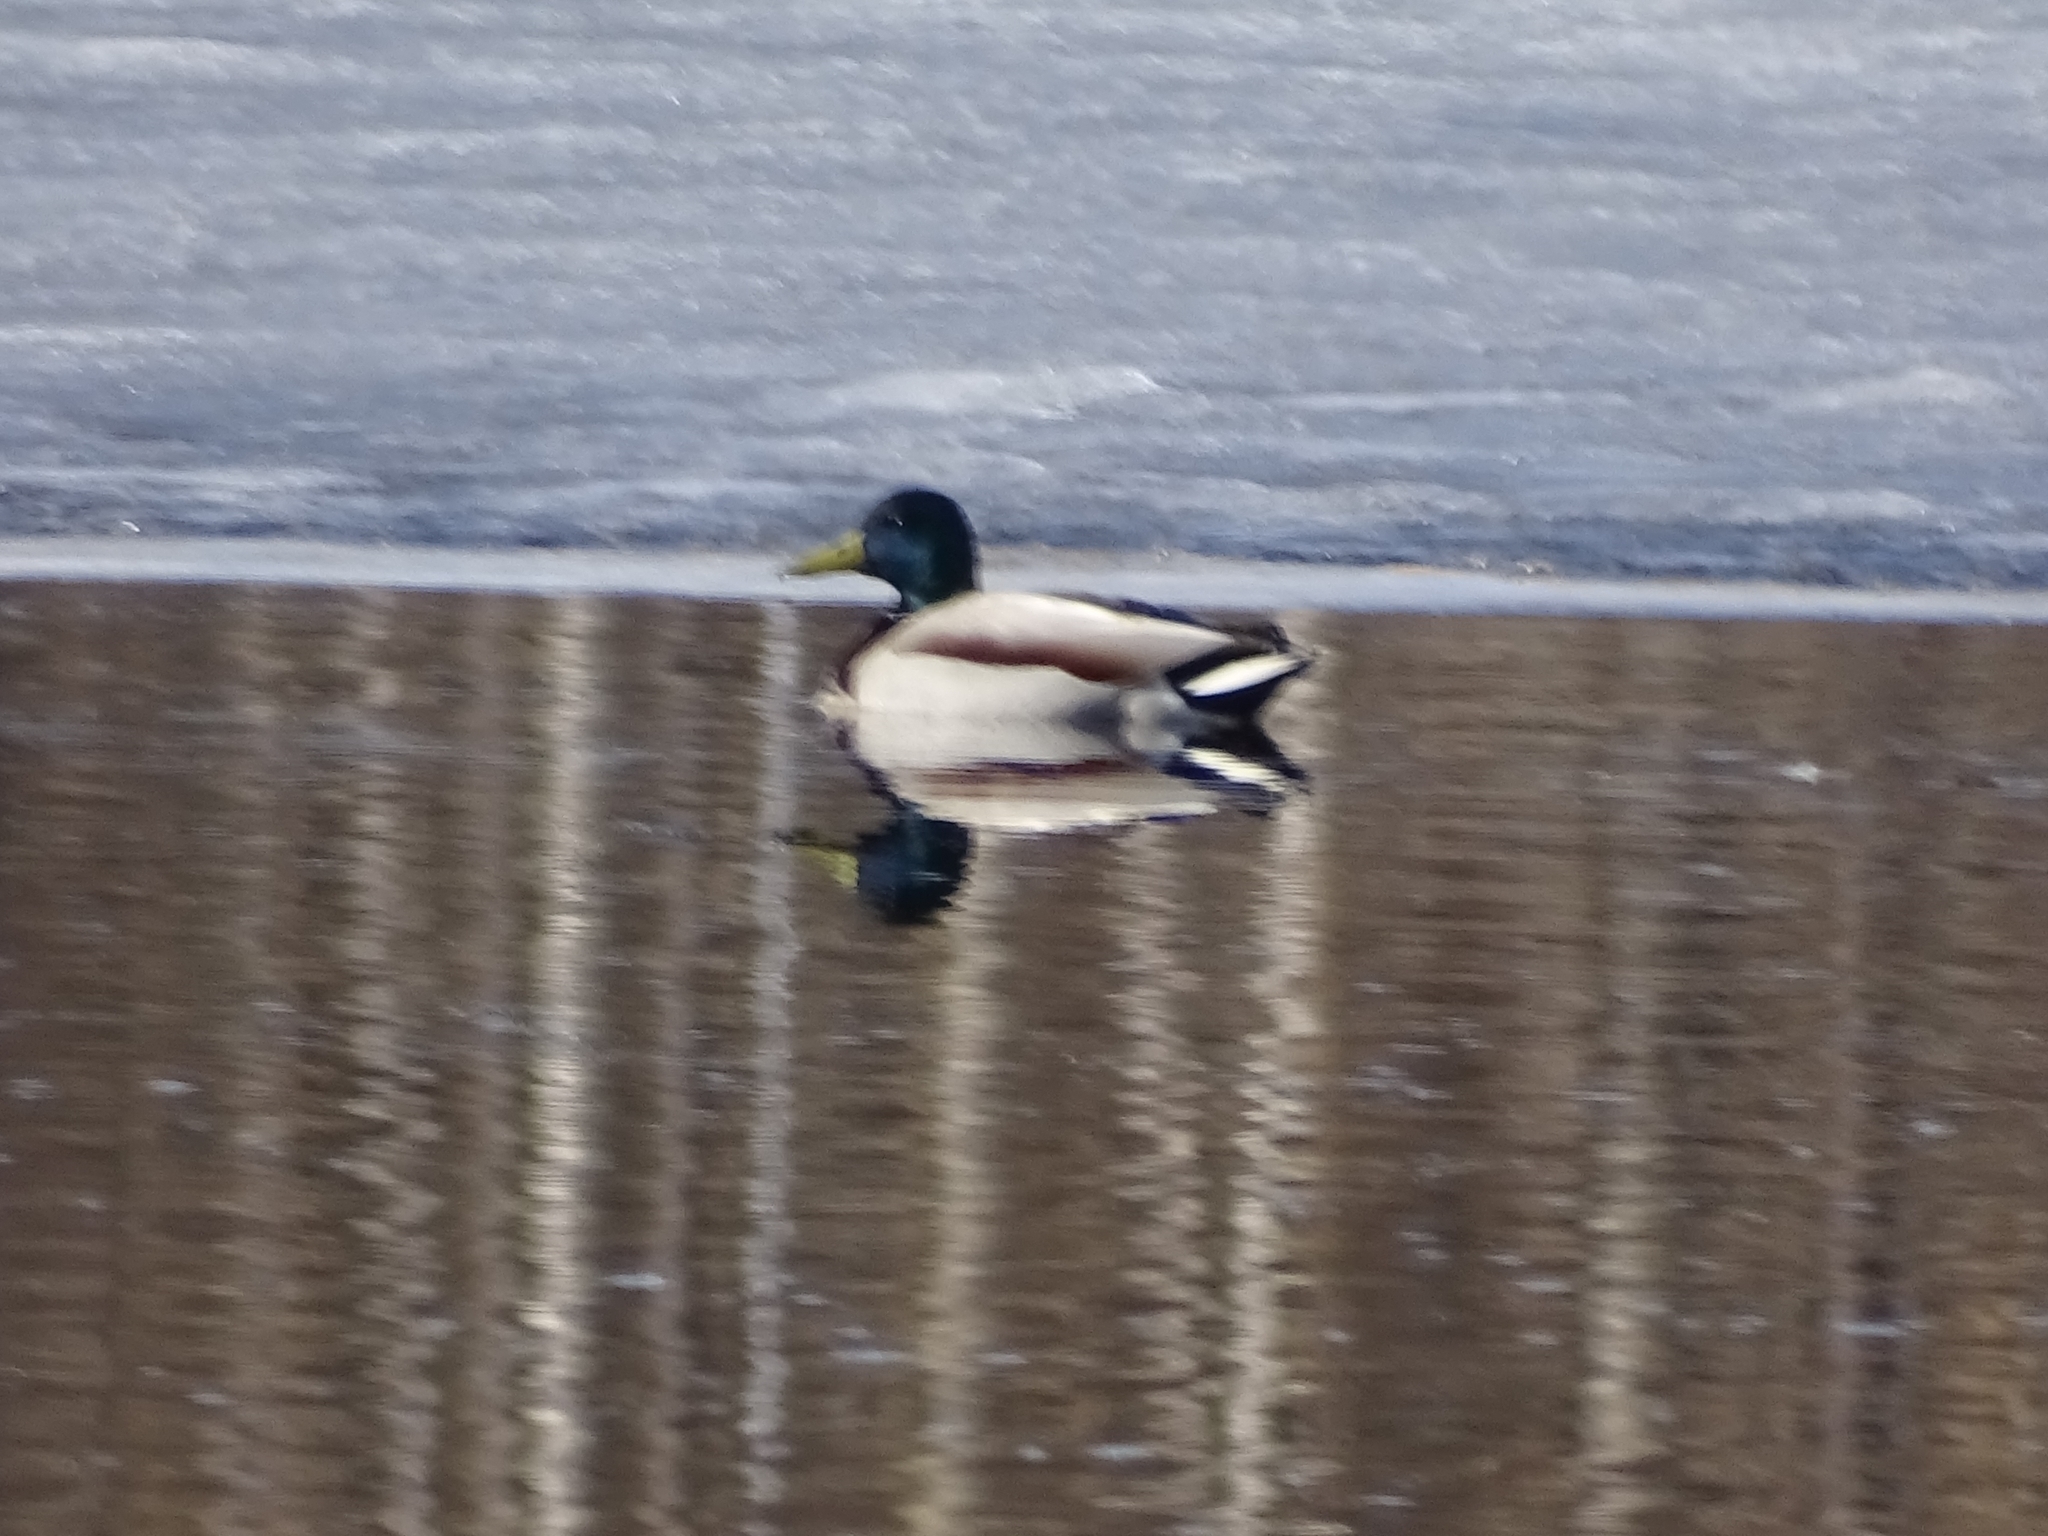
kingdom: Animalia
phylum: Chordata
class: Aves
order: Anseriformes
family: Anatidae
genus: Anas
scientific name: Anas platyrhynchos
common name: Mallard
